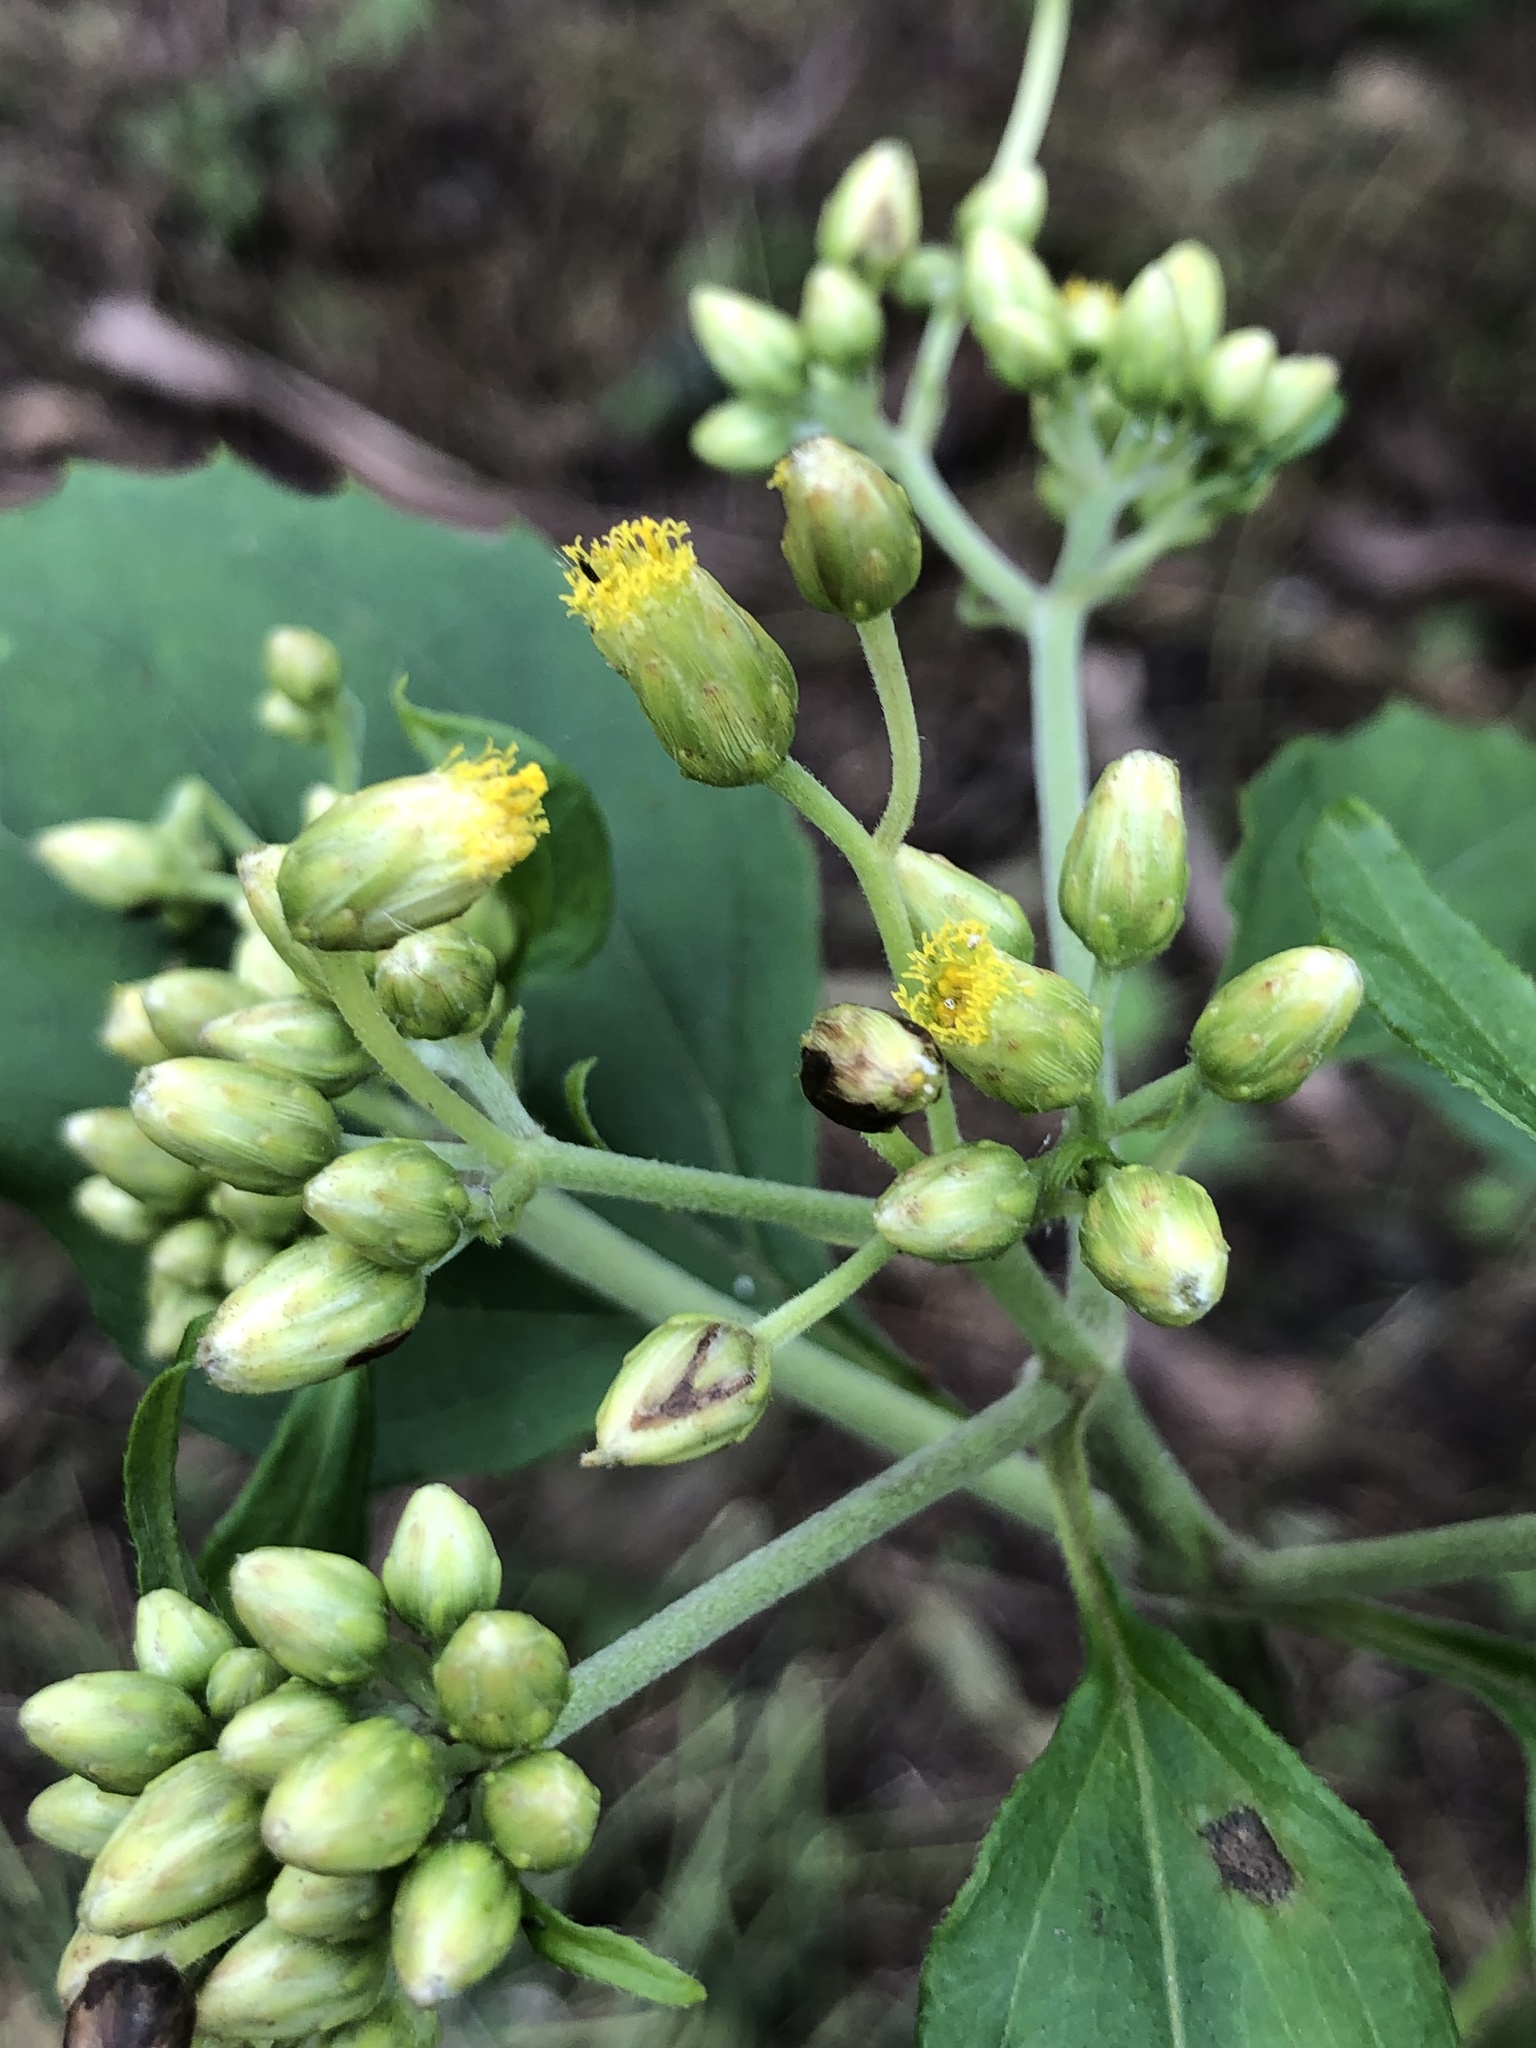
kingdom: Plantae
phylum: Tracheophyta
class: Magnoliopsida
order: Asterales
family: Asteraceae
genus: Schistocarpha
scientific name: Schistocarpha eupatorioides
